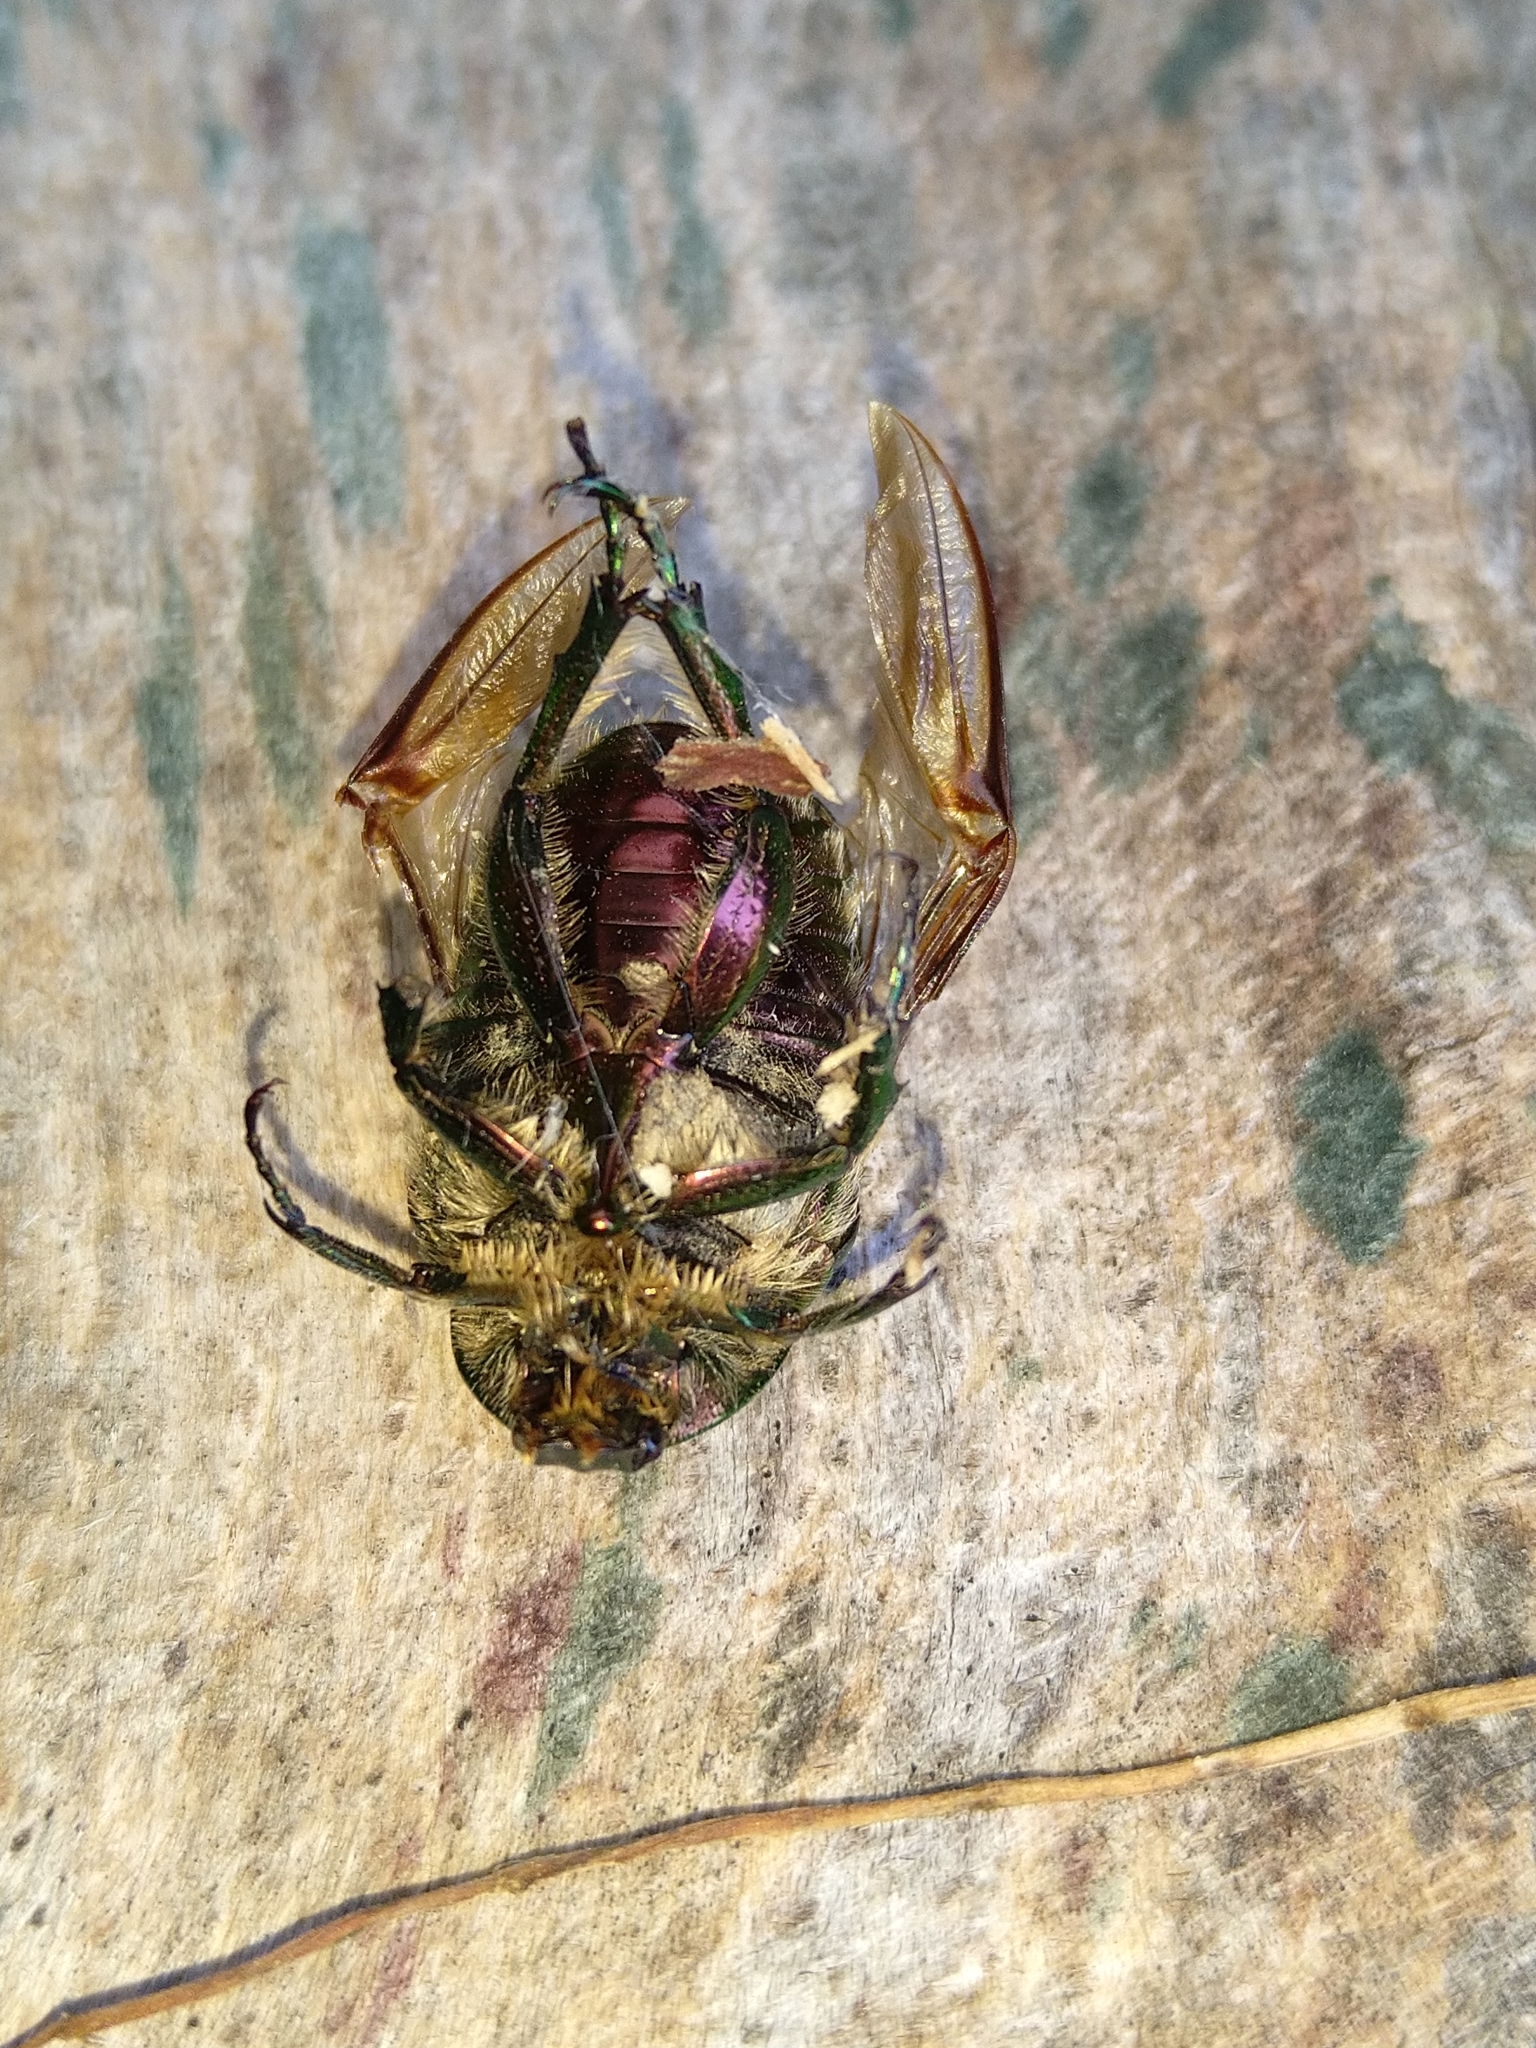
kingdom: Animalia
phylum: Arthropoda
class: Insecta
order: Coleoptera
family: Scarabaeidae
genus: Cetonia
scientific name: Cetonia aurata
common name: Rose chafer
